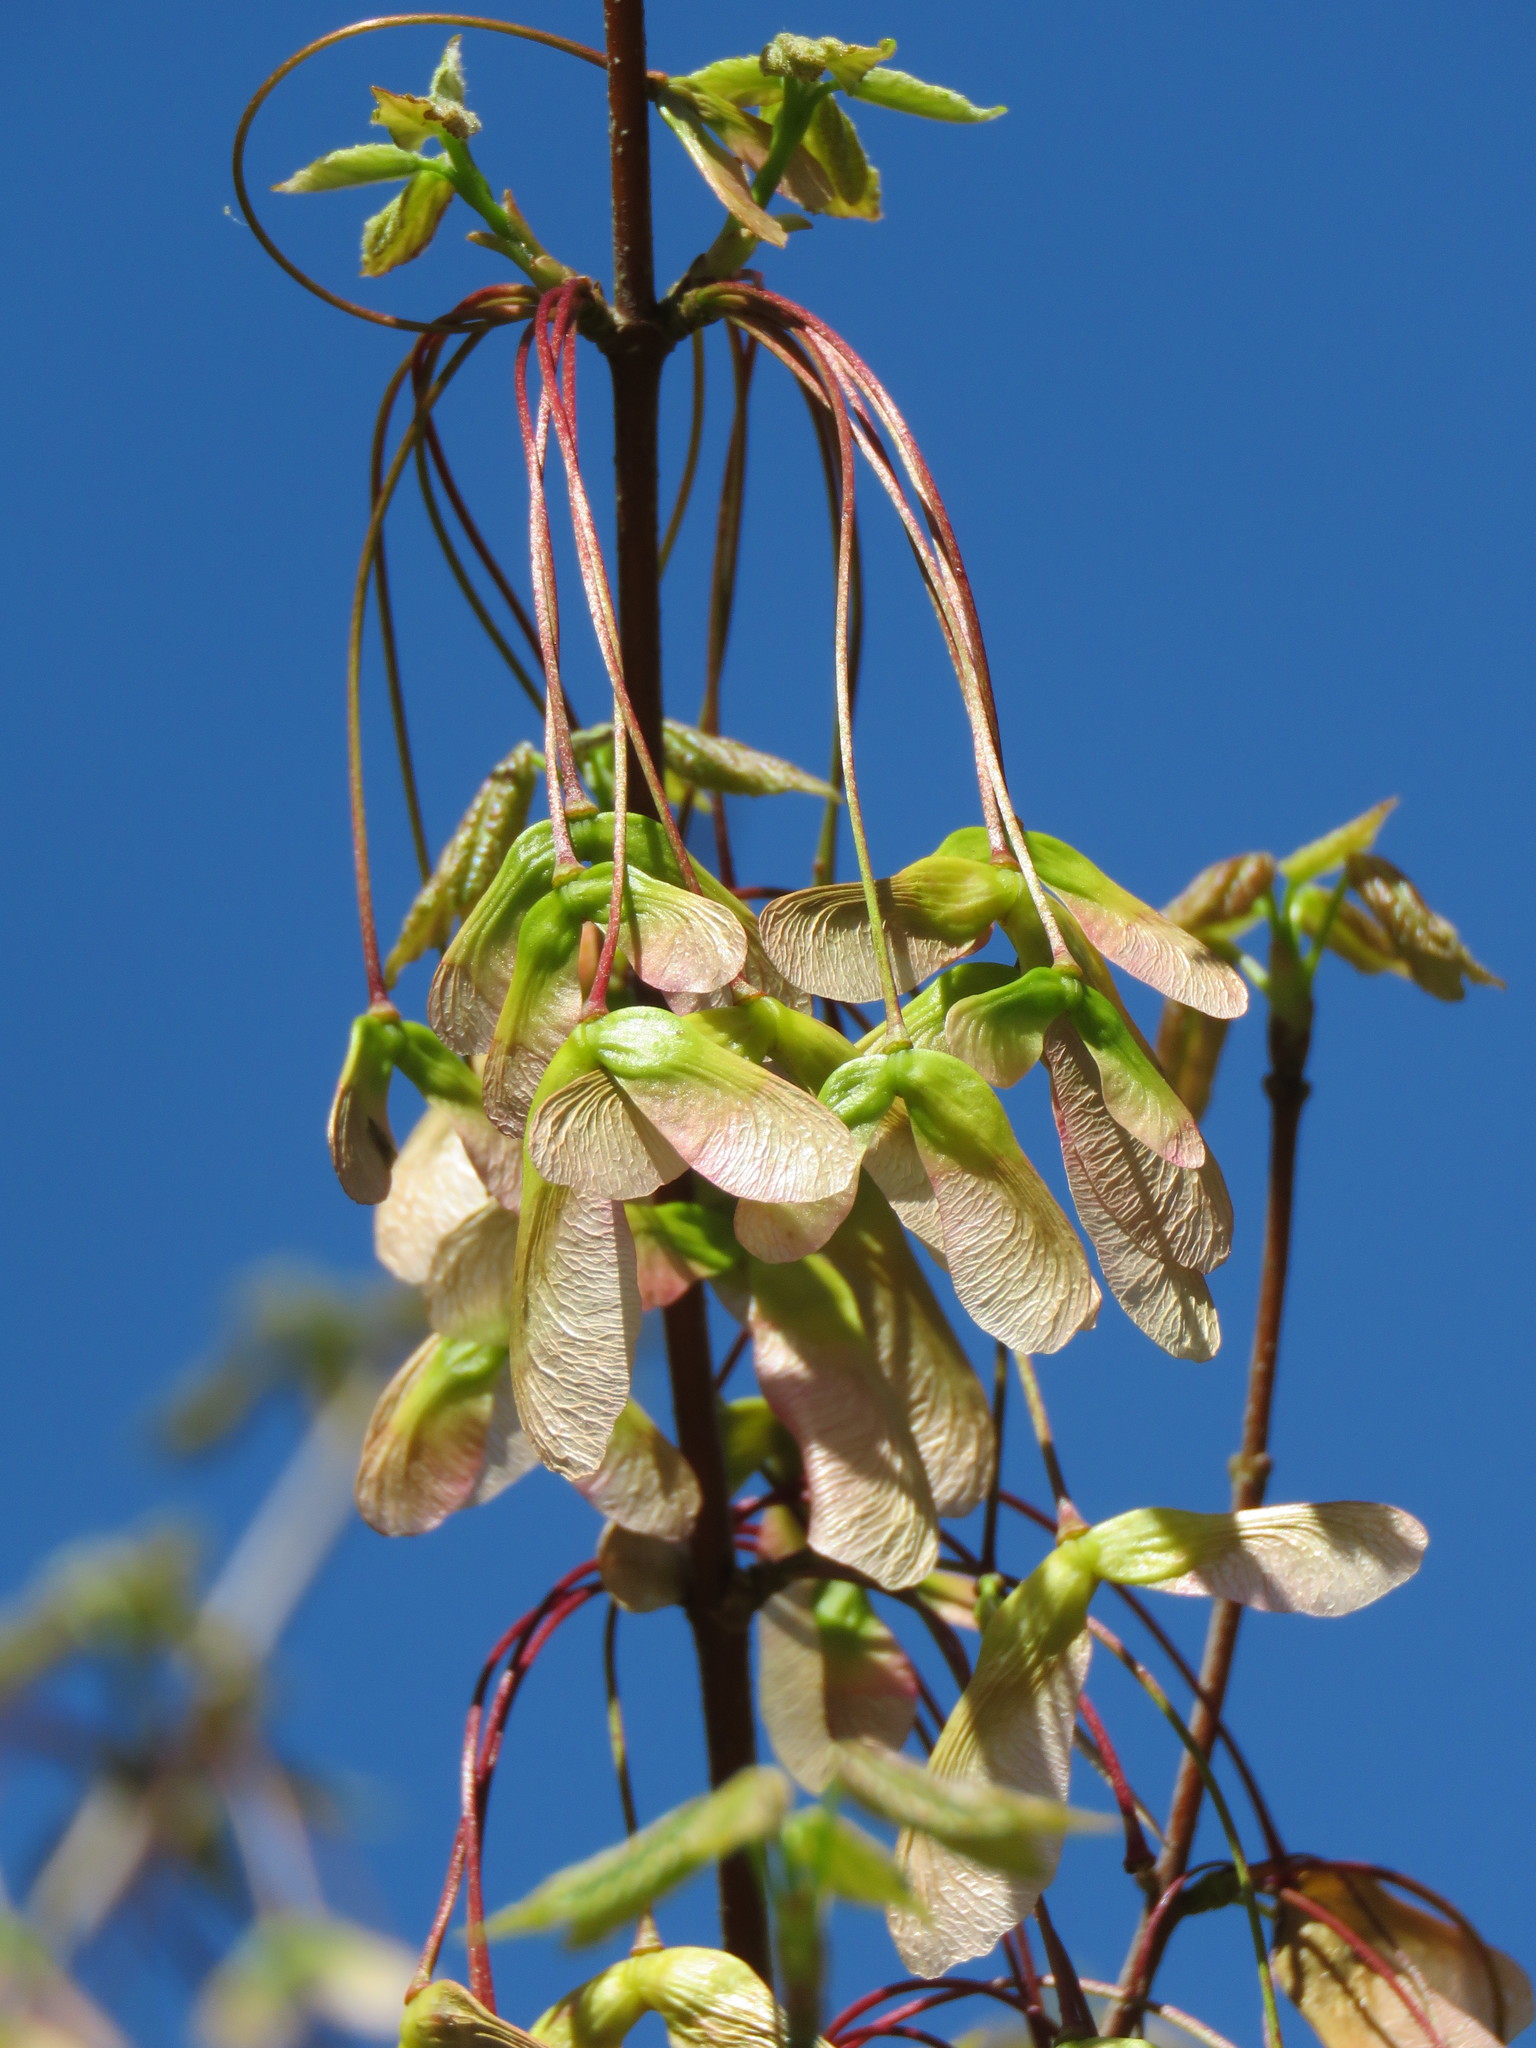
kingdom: Plantae
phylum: Tracheophyta
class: Magnoliopsida
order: Sapindales
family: Sapindaceae
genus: Acer
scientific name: Acer rubrum
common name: Red maple
